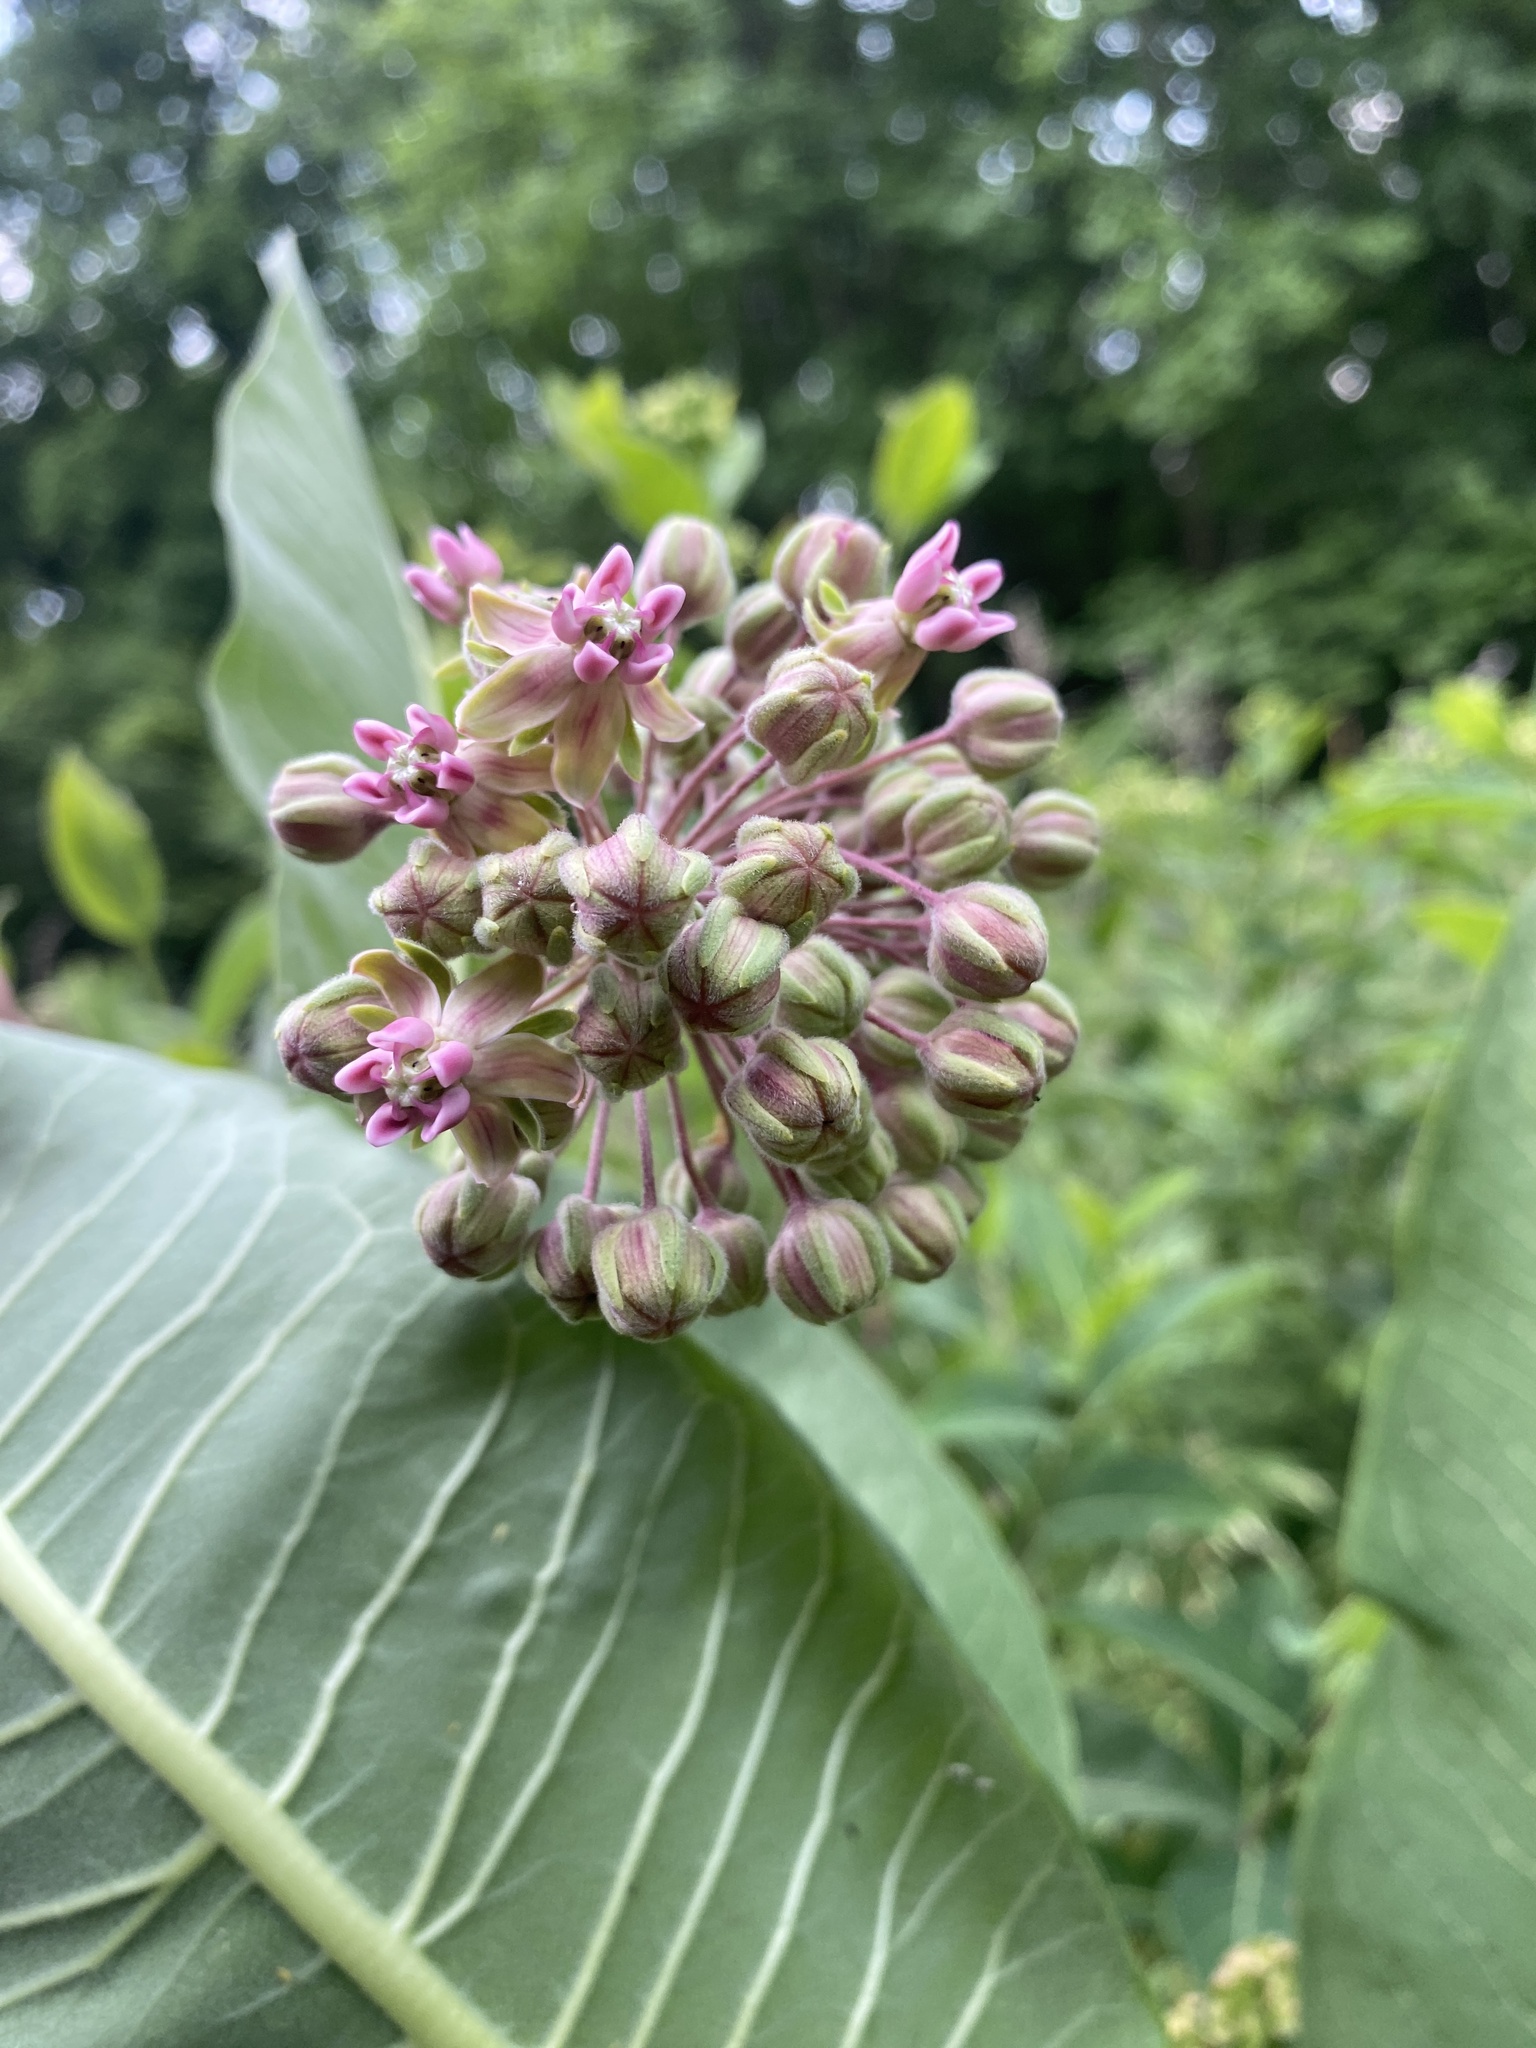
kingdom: Plantae
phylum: Tracheophyta
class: Magnoliopsida
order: Gentianales
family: Apocynaceae
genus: Asclepias
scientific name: Asclepias syriaca
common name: Common milkweed
